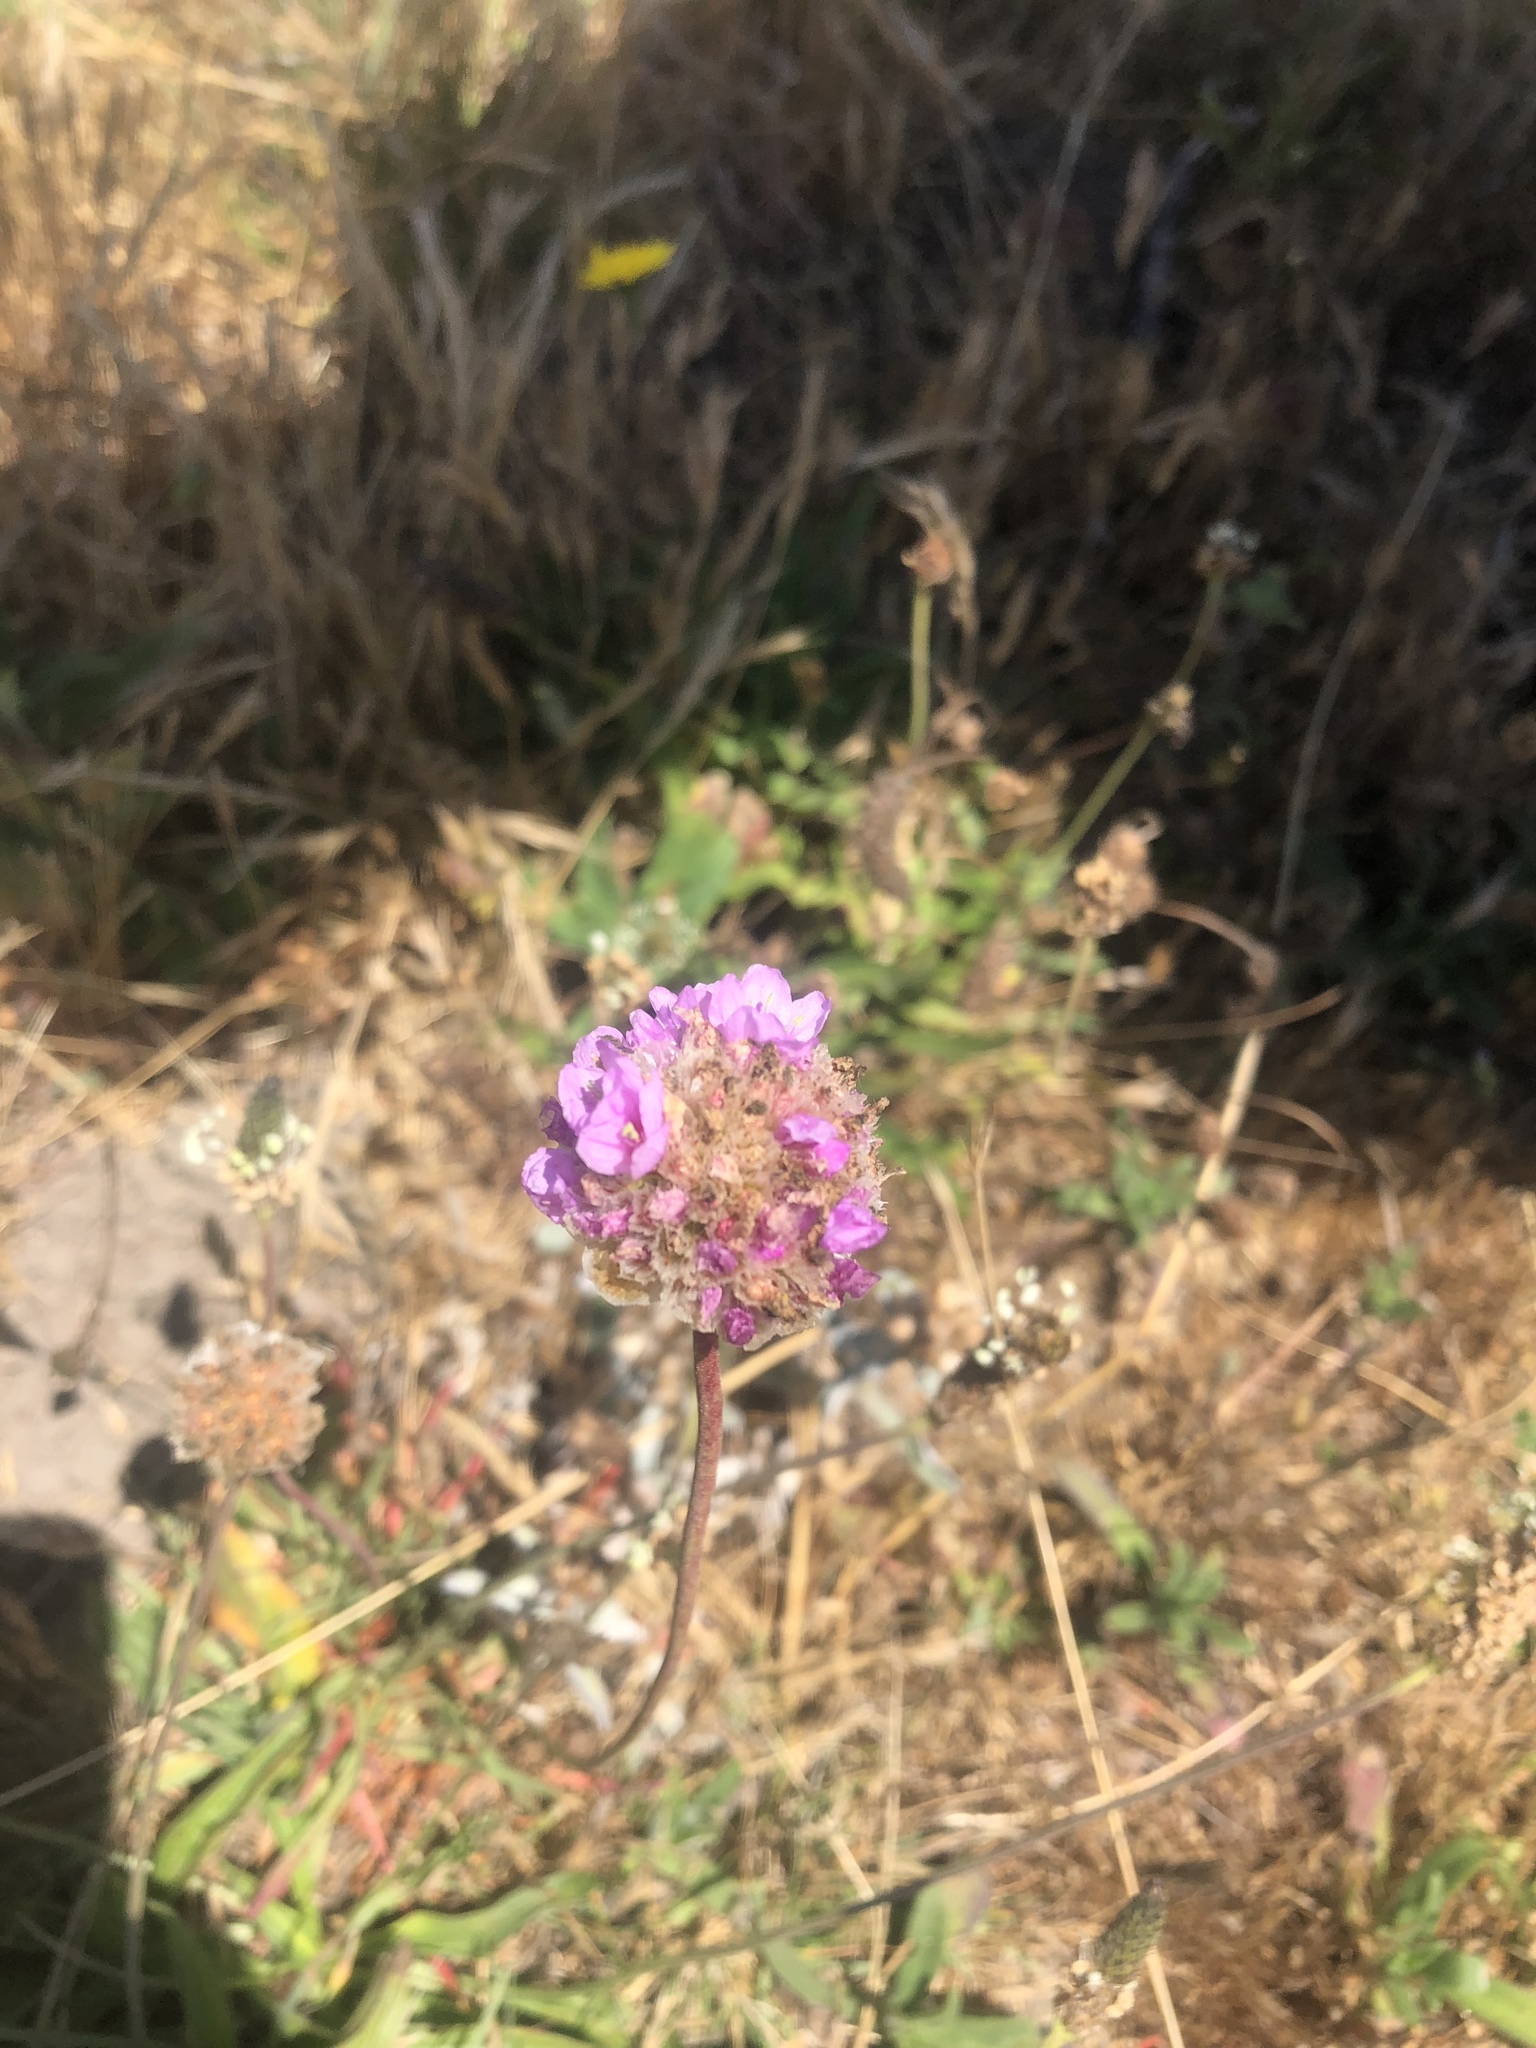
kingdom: Plantae
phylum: Tracheophyta
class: Magnoliopsida
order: Caryophyllales
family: Plumbaginaceae
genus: Armeria
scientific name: Armeria maritima
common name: Thrift
